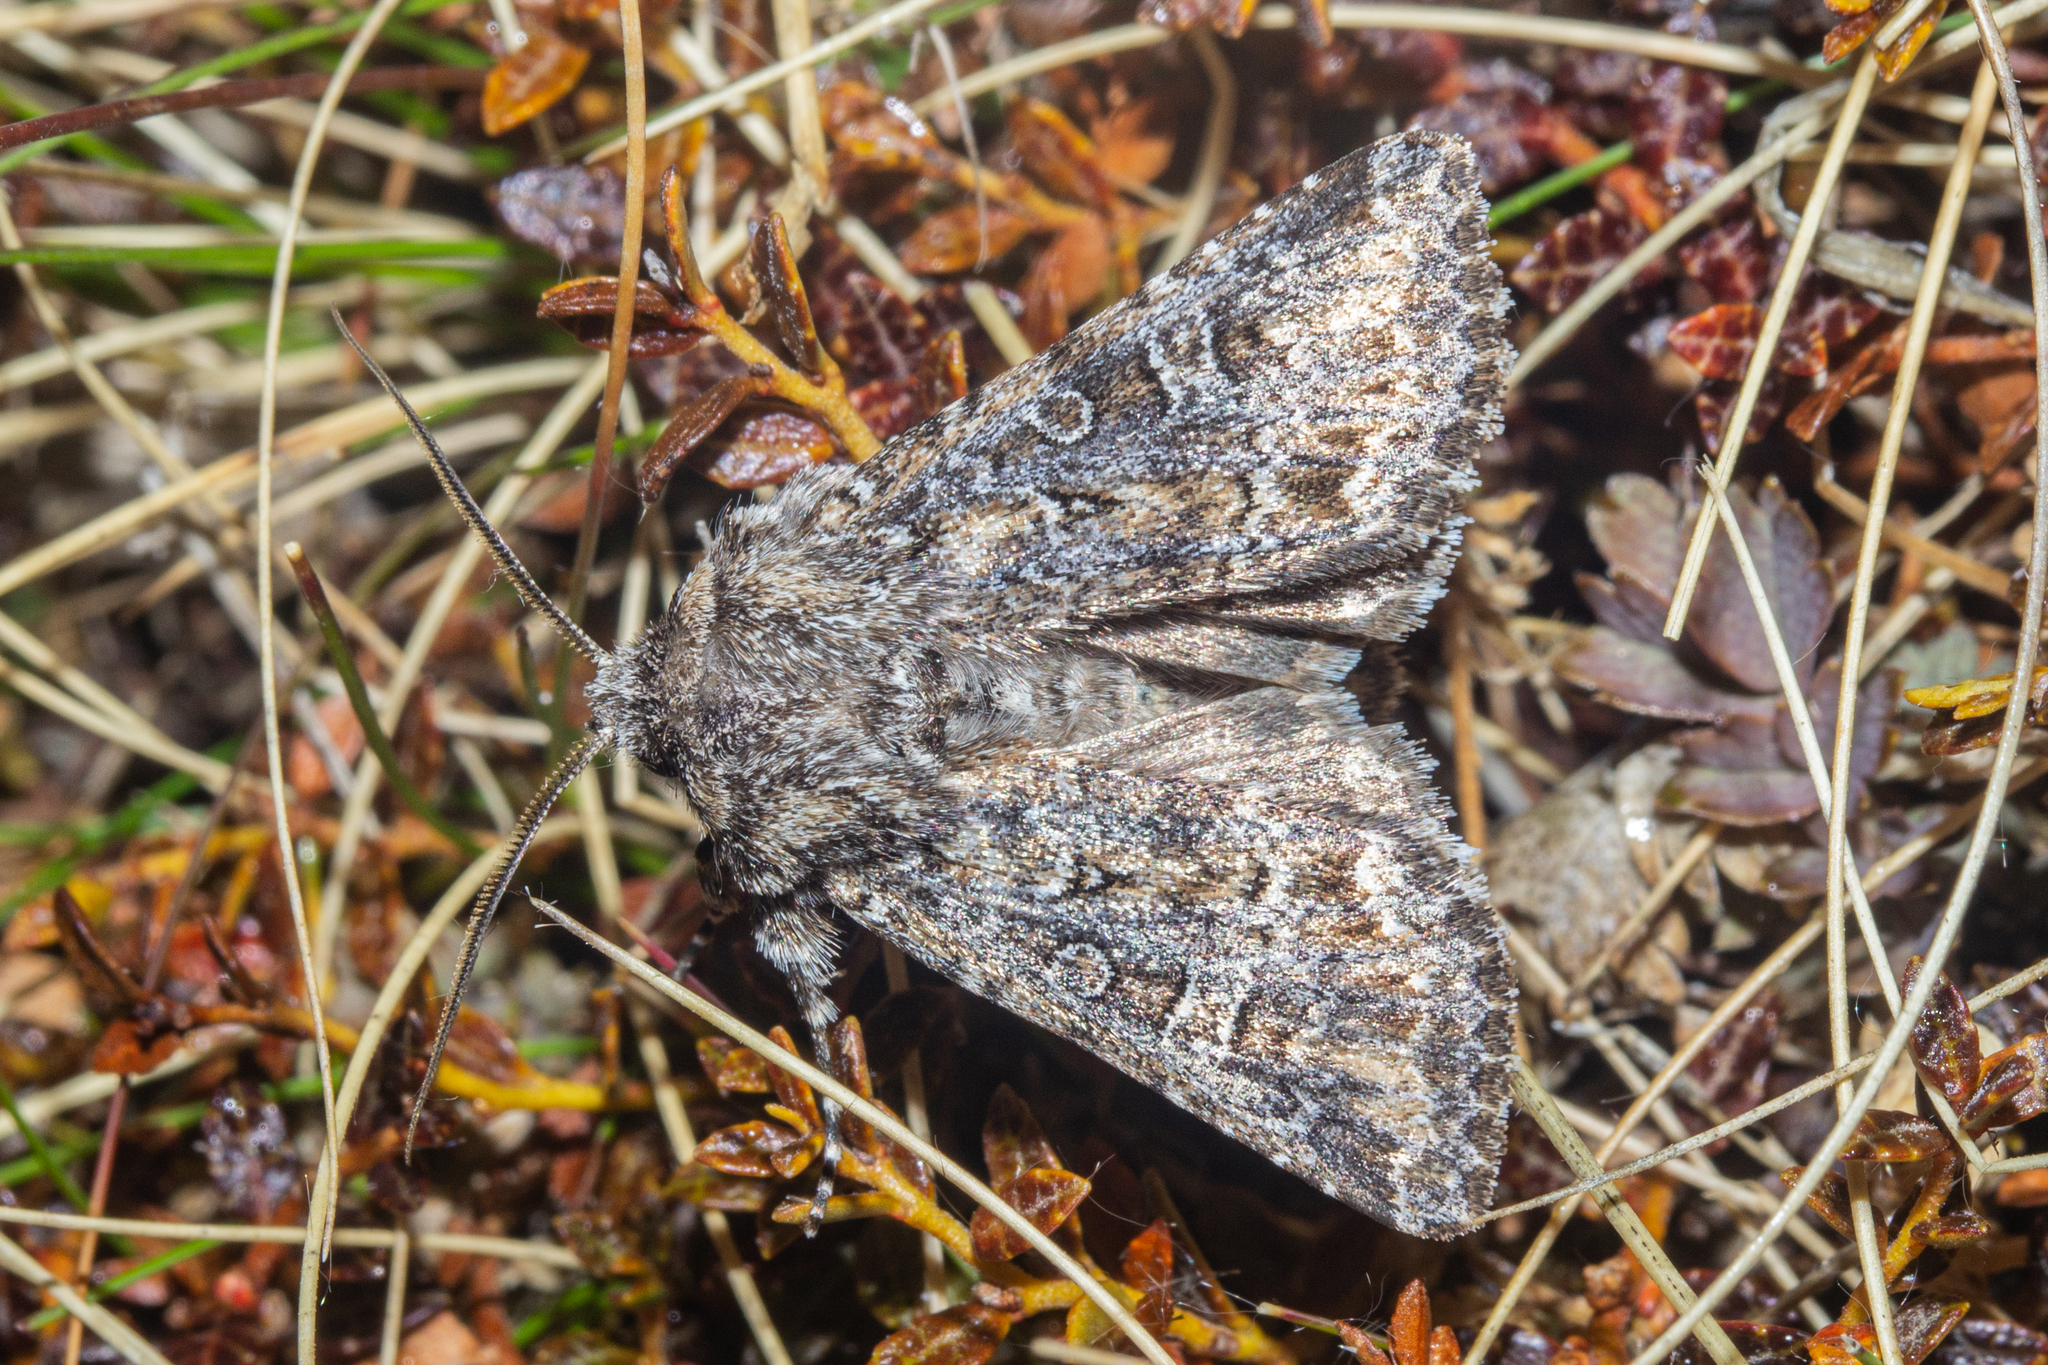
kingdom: Animalia
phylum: Arthropoda
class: Insecta
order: Lepidoptera
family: Noctuidae
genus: Ichneutica
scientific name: Ichneutica lithias
